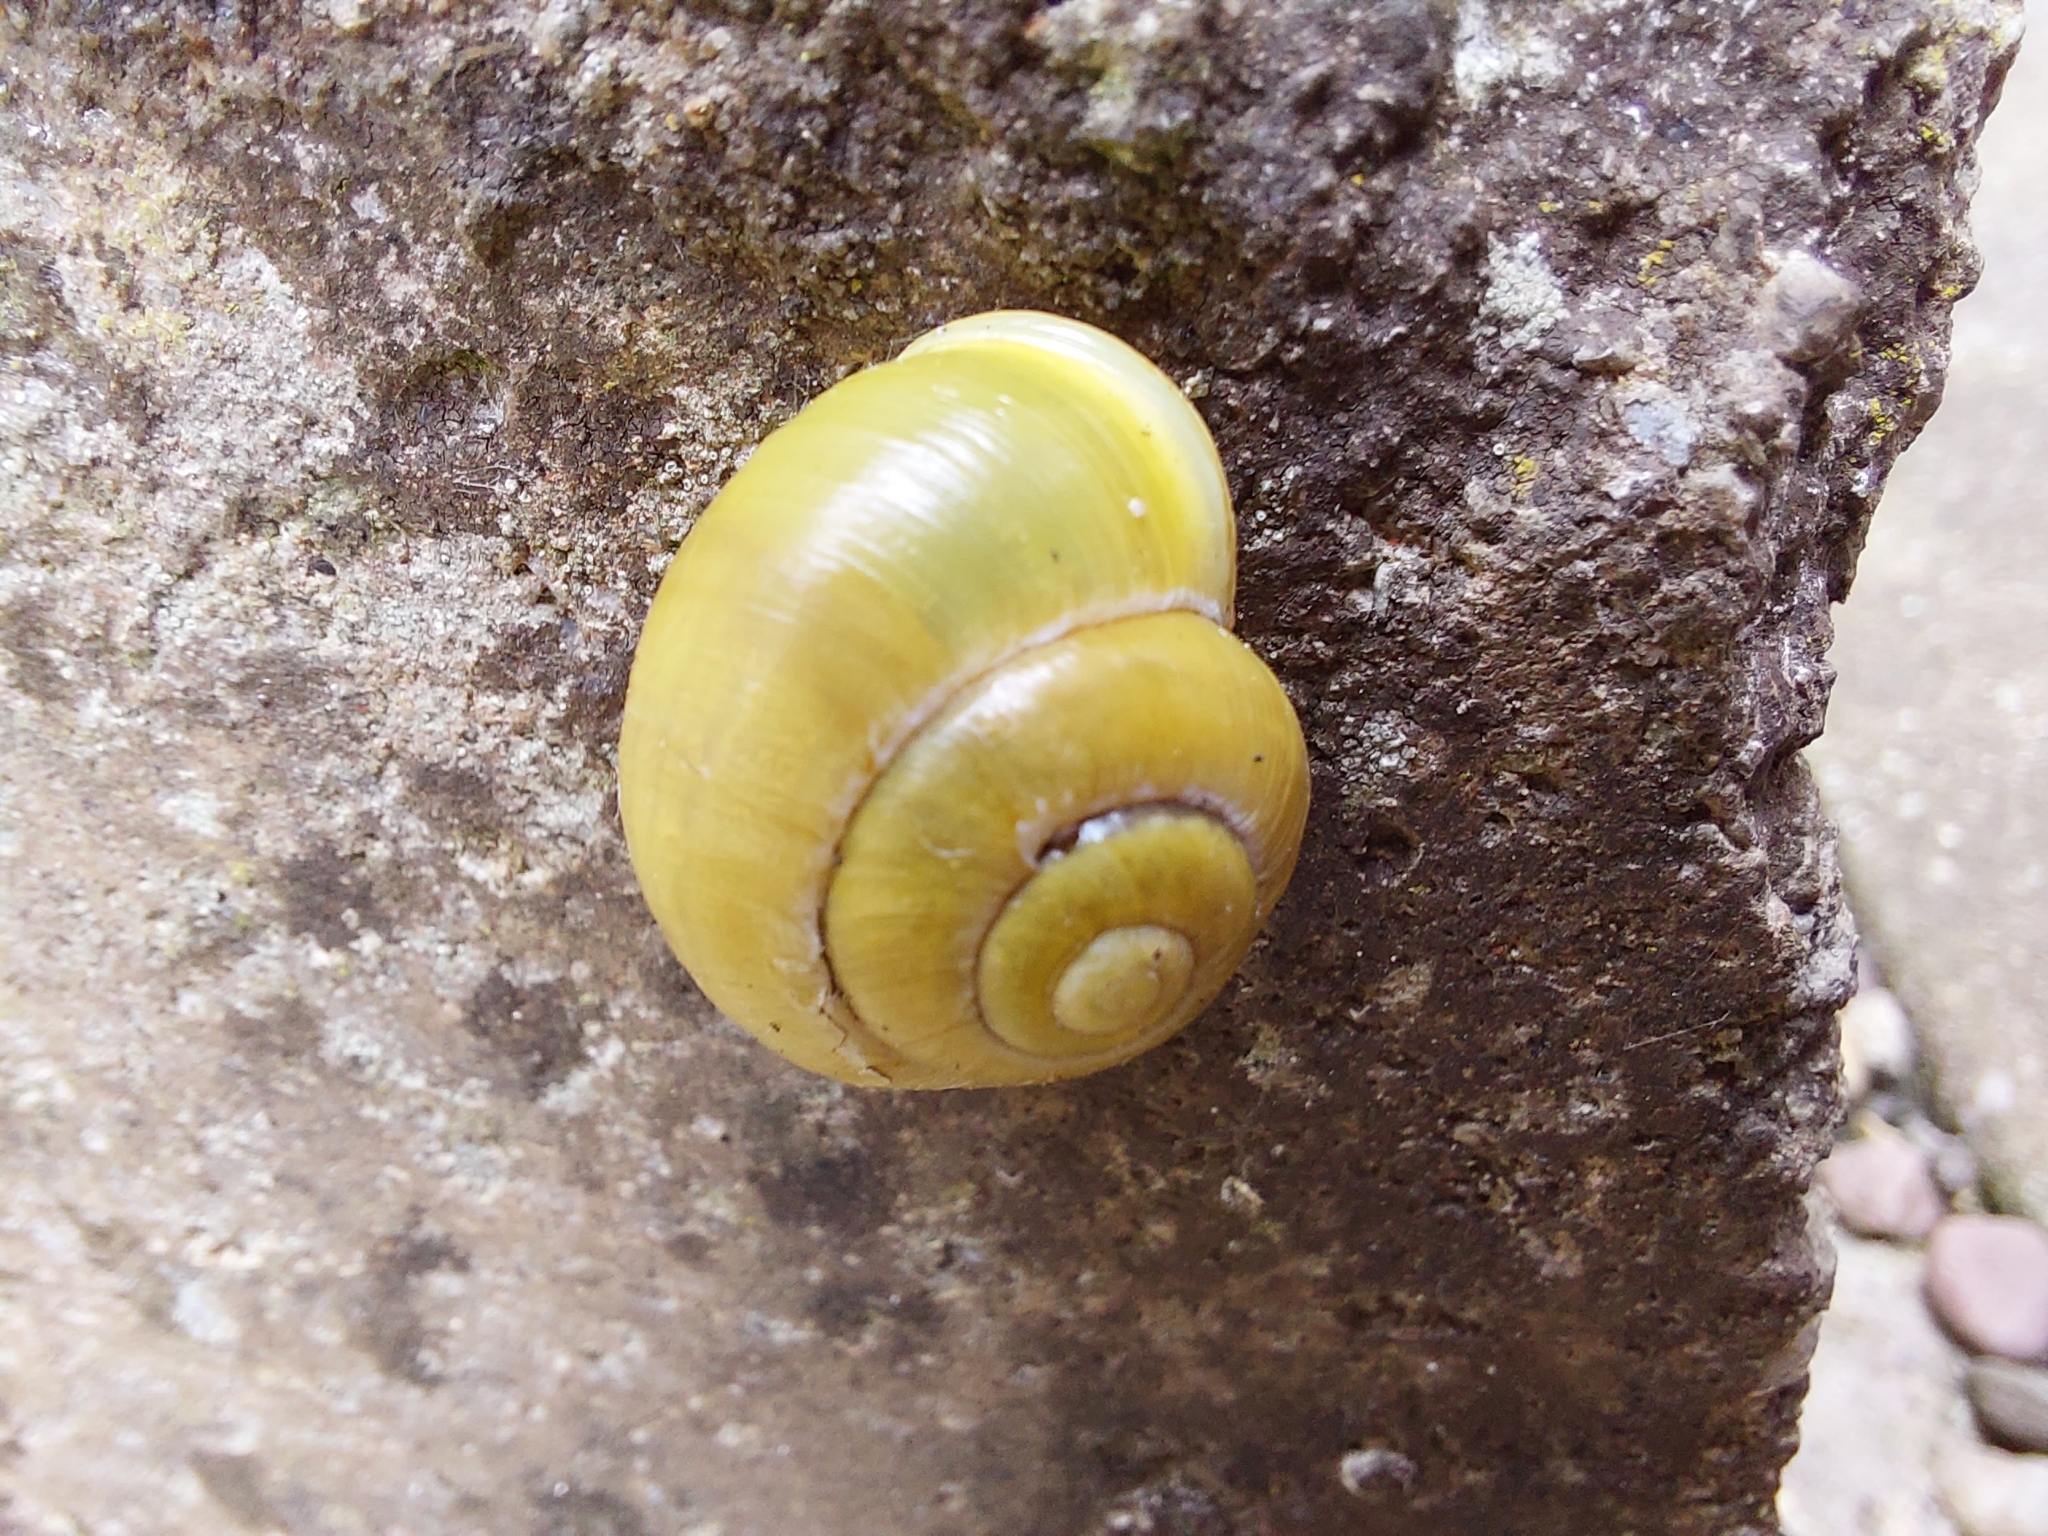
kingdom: Animalia
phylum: Mollusca
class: Gastropoda
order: Stylommatophora
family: Helicidae
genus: Cepaea
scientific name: Cepaea hortensis
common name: White-lip gardensnail
